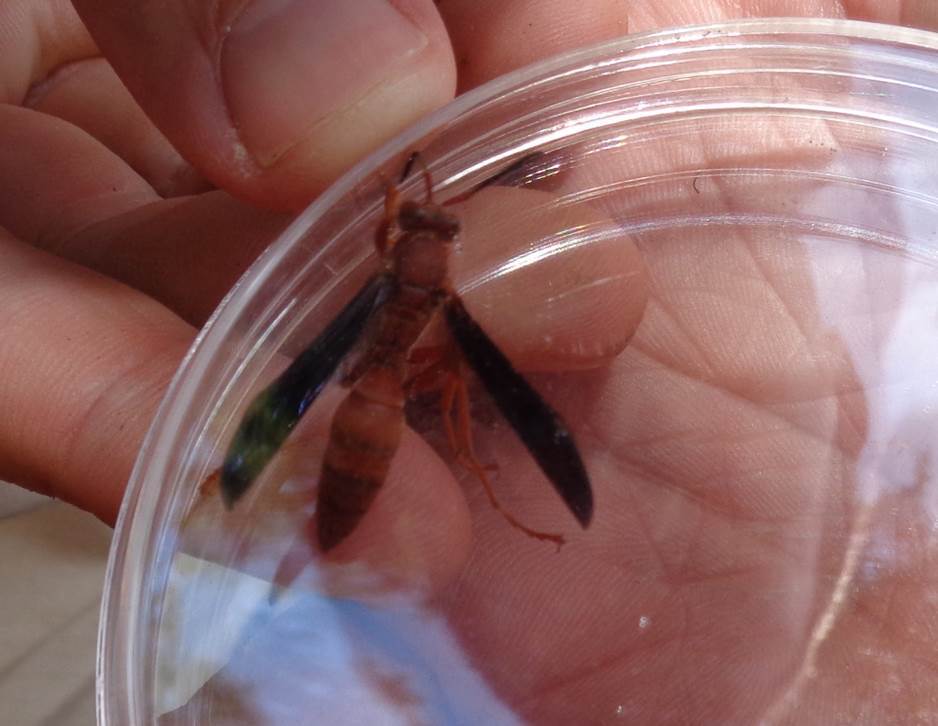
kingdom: Animalia
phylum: Arthropoda
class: Insecta
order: Hymenoptera
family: Vespidae
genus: Fuscopolistes
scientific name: Fuscopolistes
